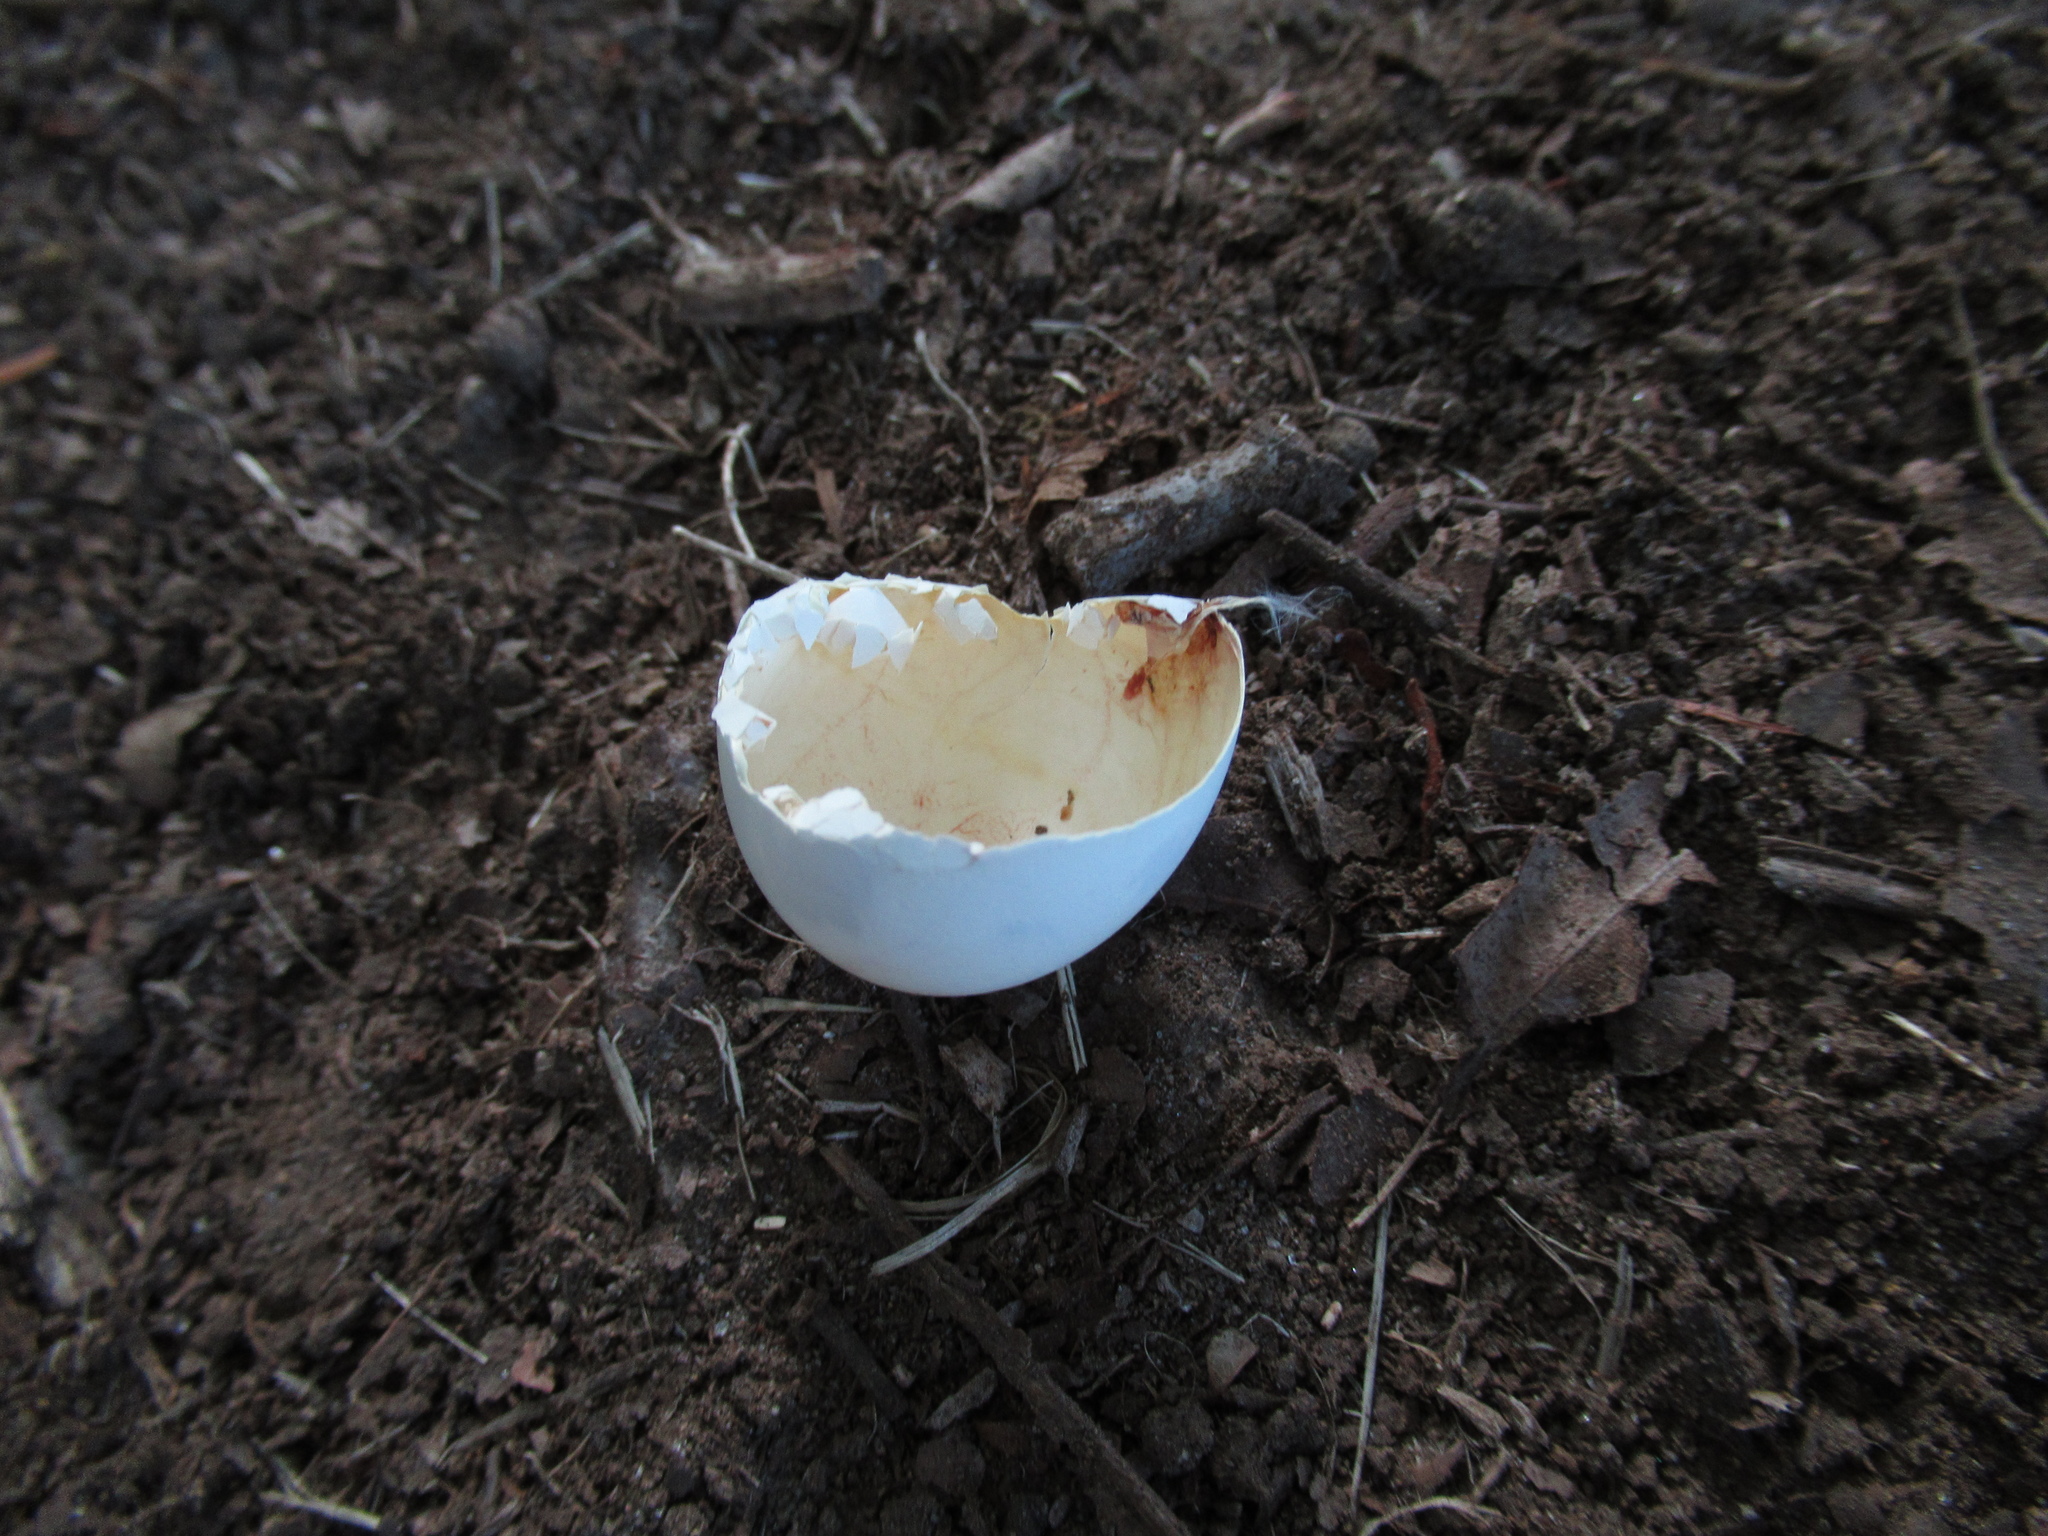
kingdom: Animalia
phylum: Chordata
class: Aves
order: Psittaciformes
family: Psittacidae
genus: Platycercus
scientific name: Platycercus eximius
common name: Eastern rosella
